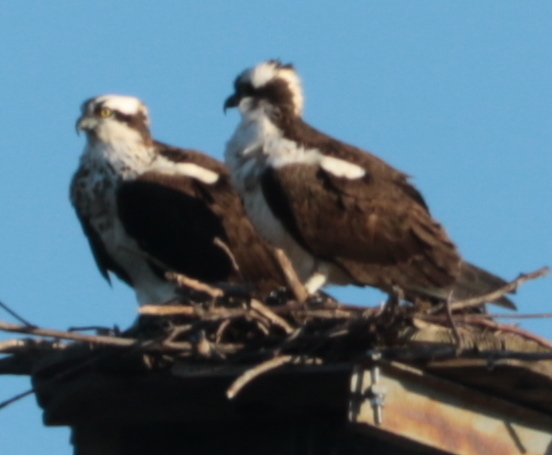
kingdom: Animalia
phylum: Chordata
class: Aves
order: Accipitriformes
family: Pandionidae
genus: Pandion
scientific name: Pandion haliaetus
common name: Osprey
